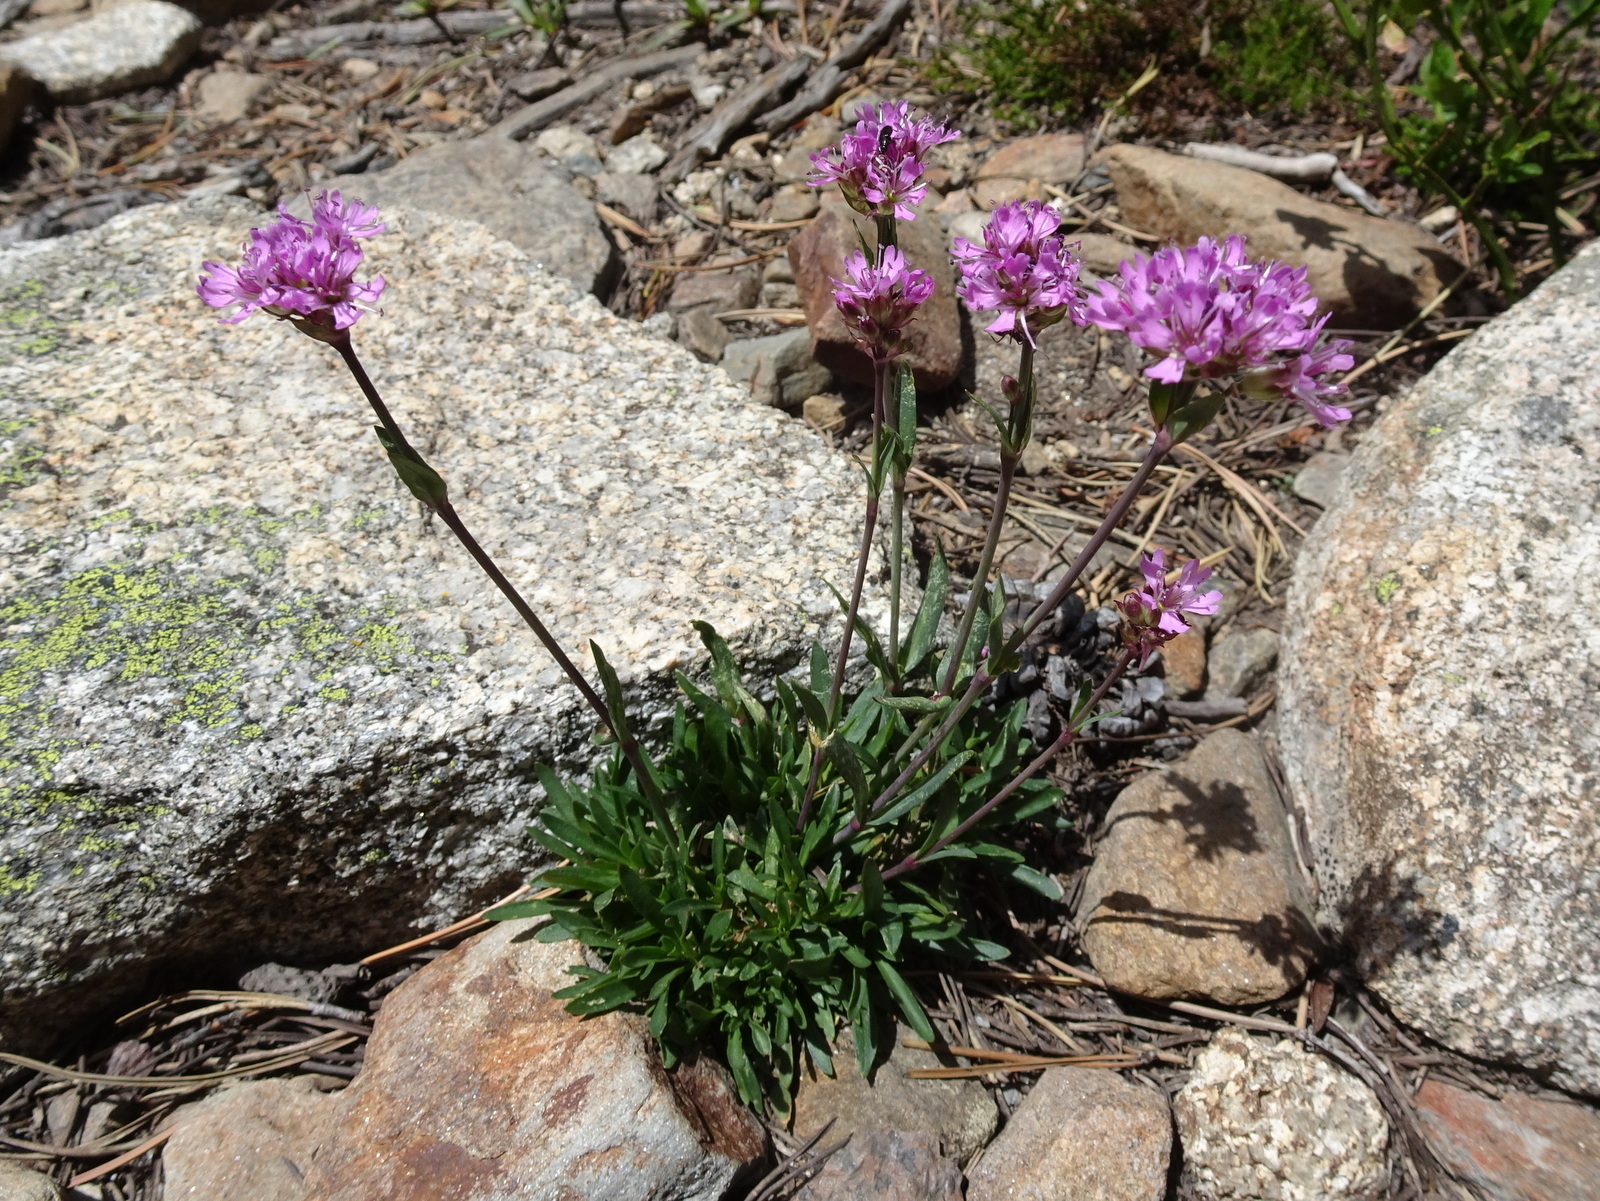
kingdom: Plantae
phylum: Tracheophyta
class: Magnoliopsida
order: Caryophyllales
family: Caryophyllaceae
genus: Viscaria
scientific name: Viscaria alpina
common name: Alpine campion
